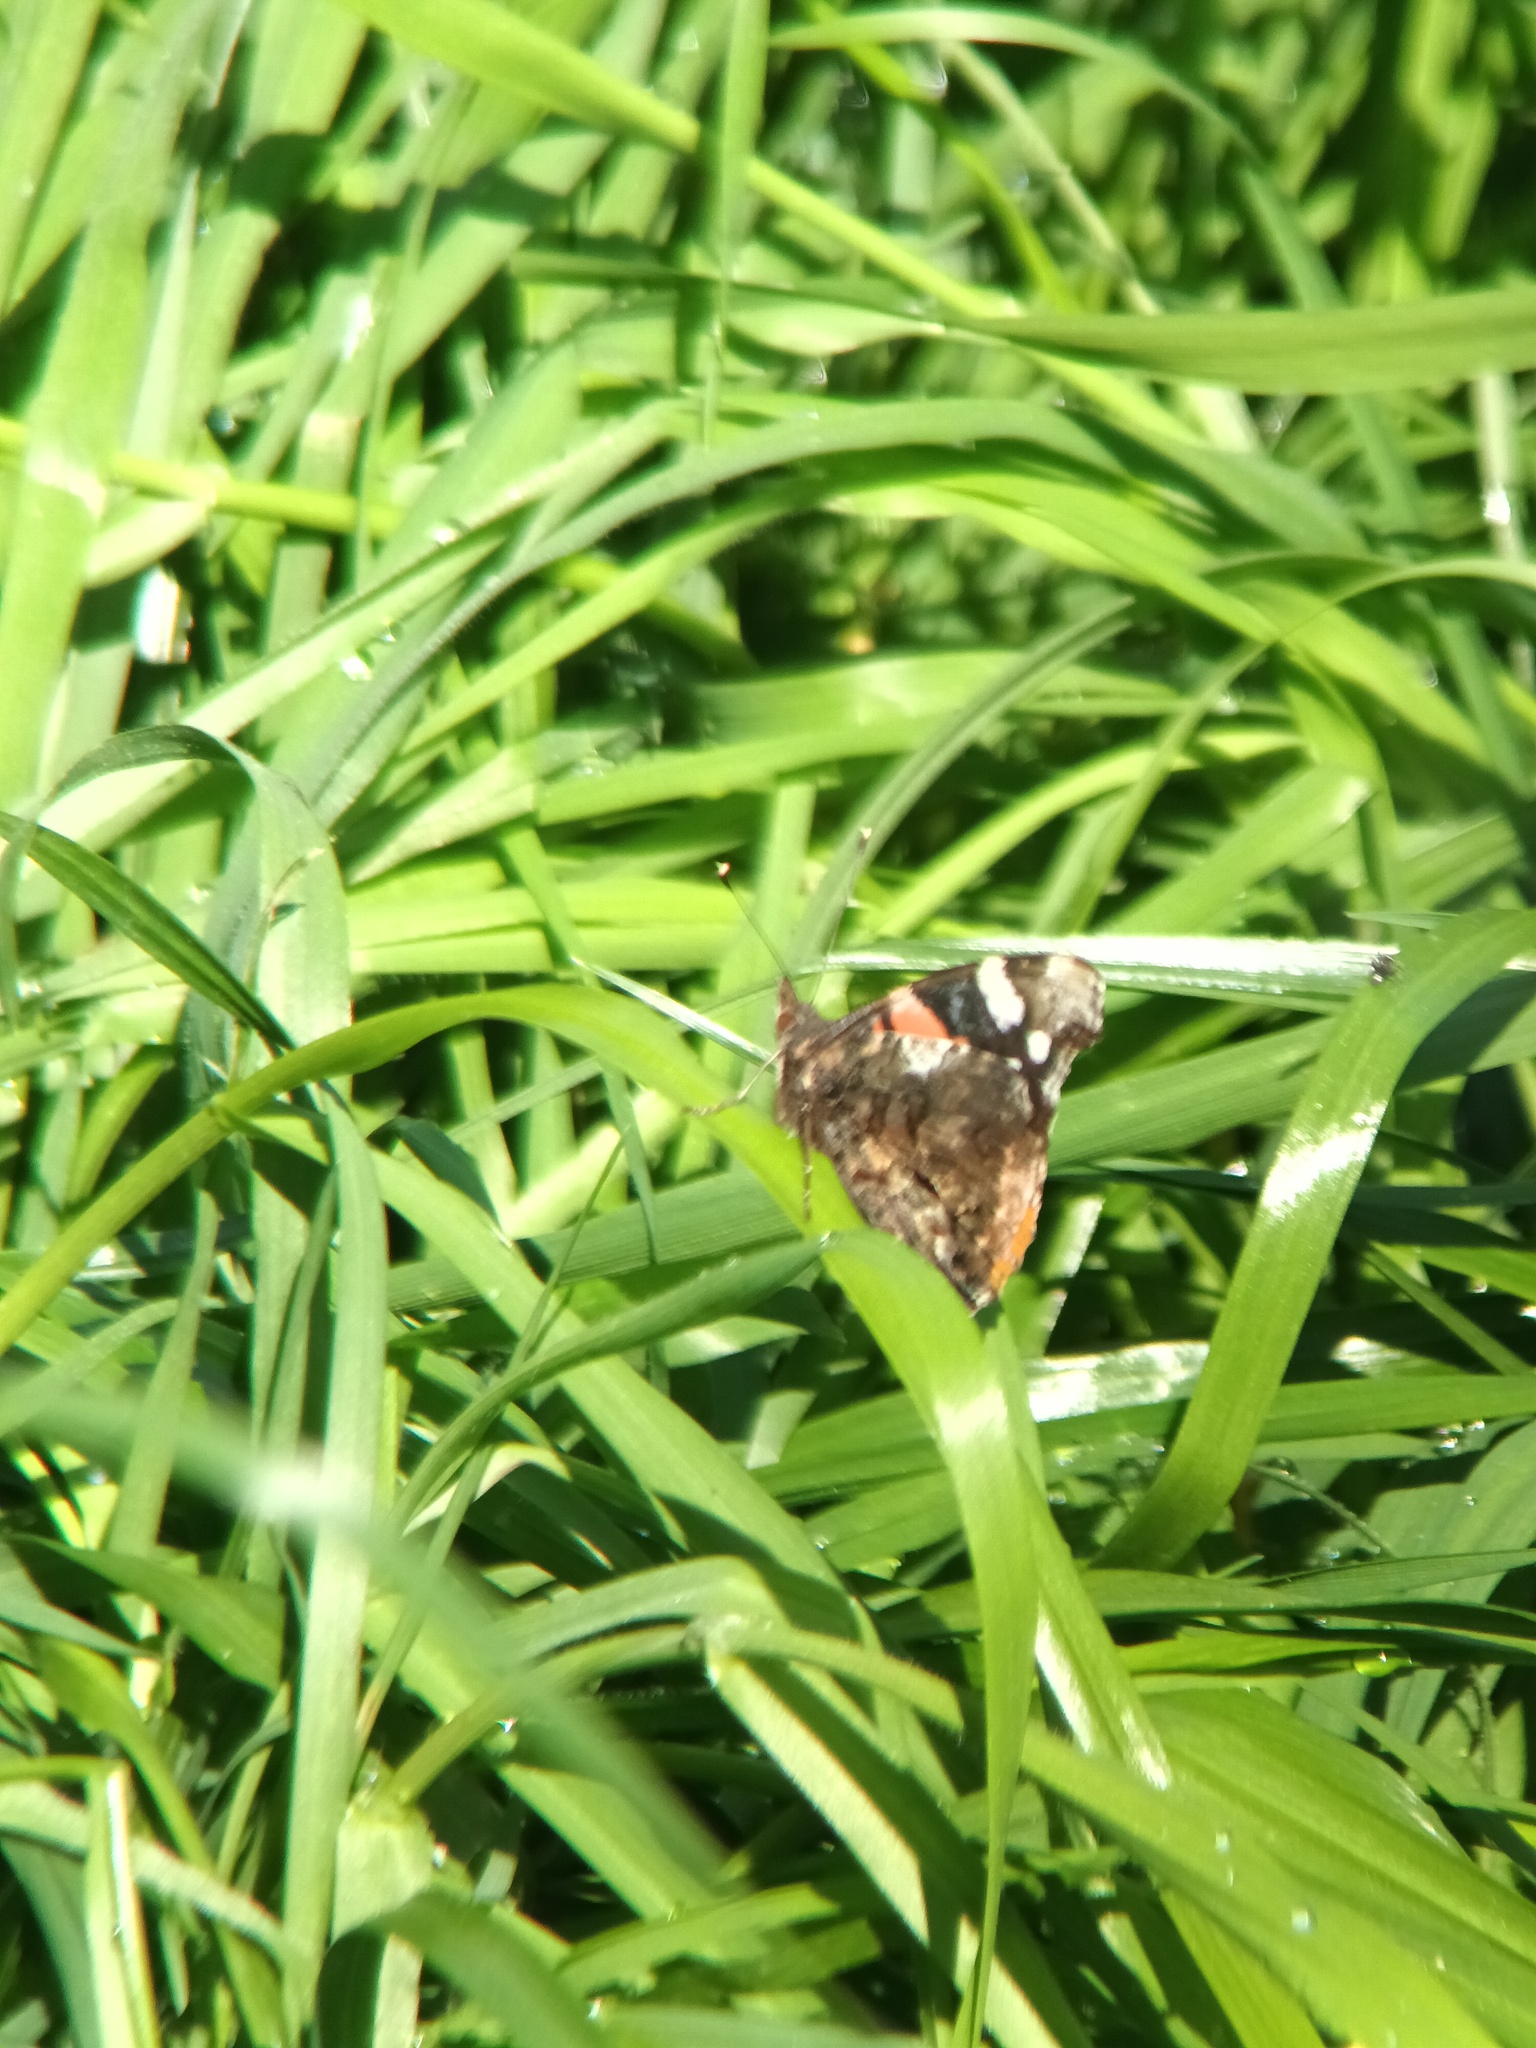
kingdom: Animalia
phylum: Arthropoda
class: Insecta
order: Lepidoptera
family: Nymphalidae
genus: Vanessa
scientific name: Vanessa atalanta
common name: Red admiral
